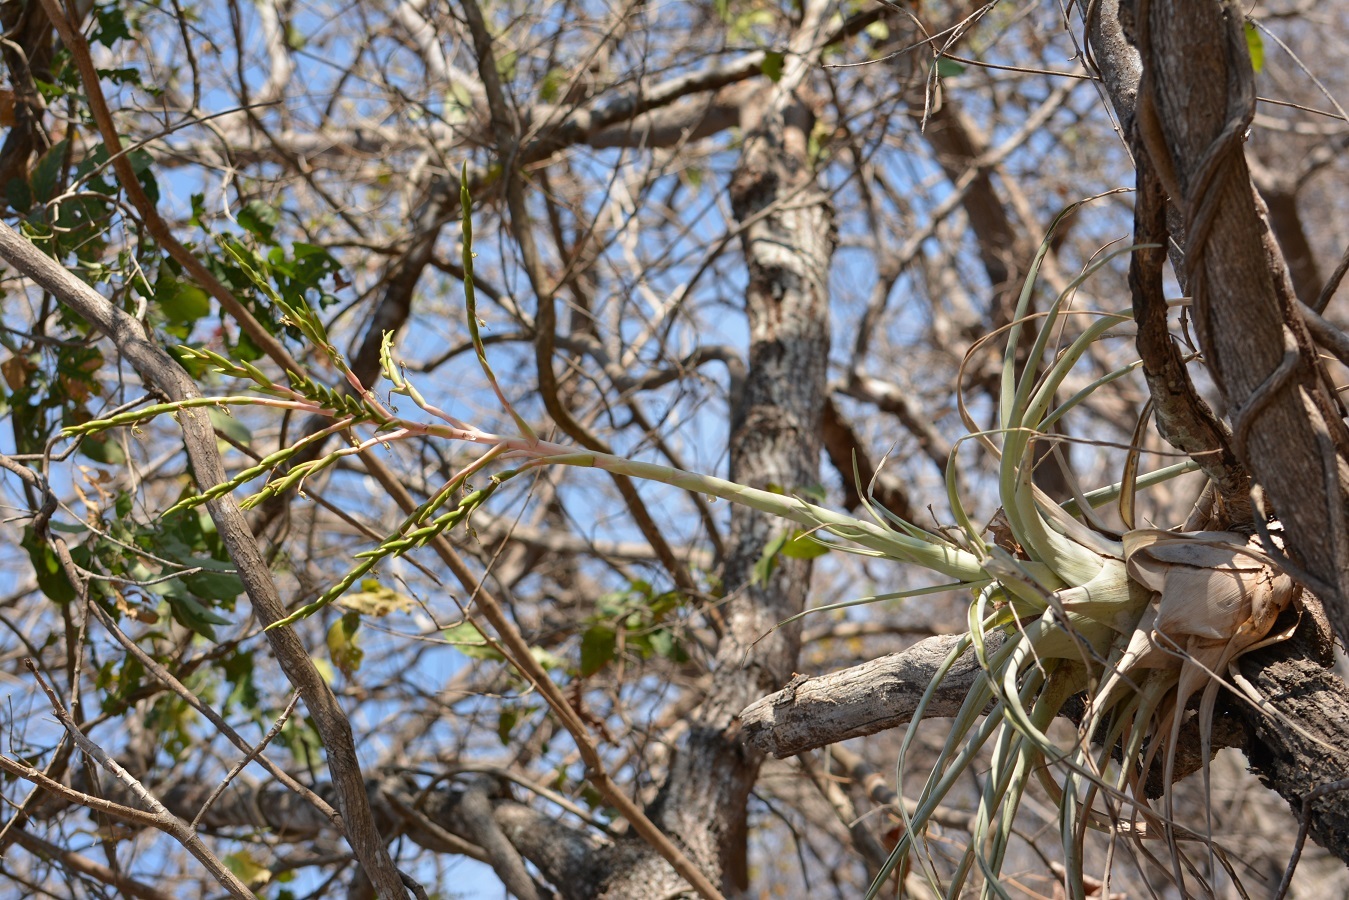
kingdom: Plantae
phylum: Tracheophyta
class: Liliopsida
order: Poales
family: Bromeliaceae
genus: Tillandsia
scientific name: Tillandsia elusiva
